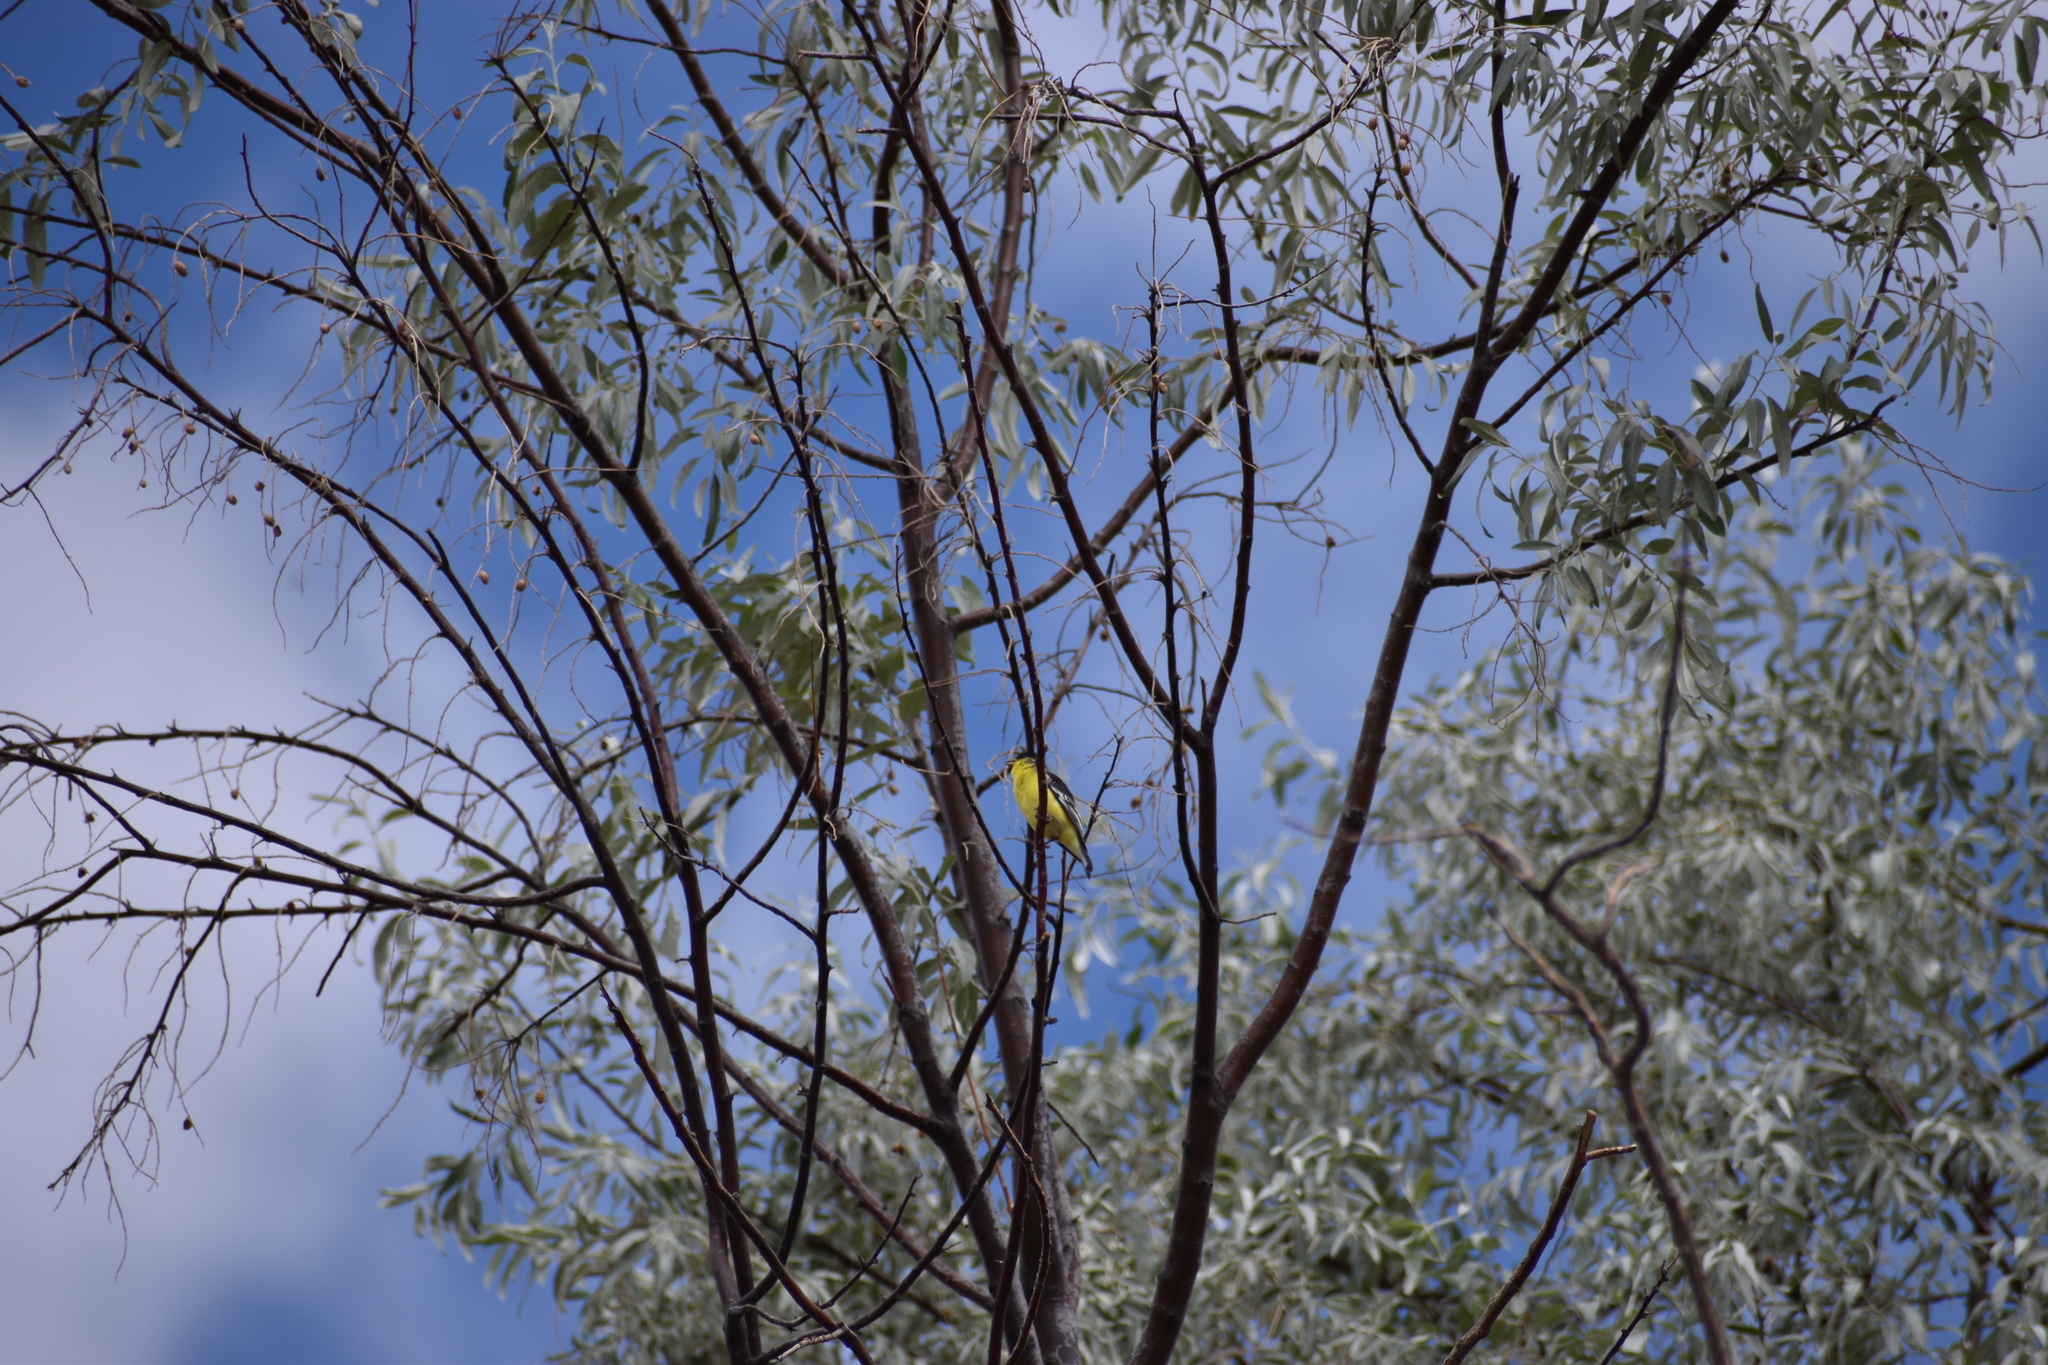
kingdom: Animalia
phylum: Chordata
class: Aves
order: Passeriformes
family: Fringillidae
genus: Spinus
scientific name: Spinus psaltria
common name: Lesser goldfinch
